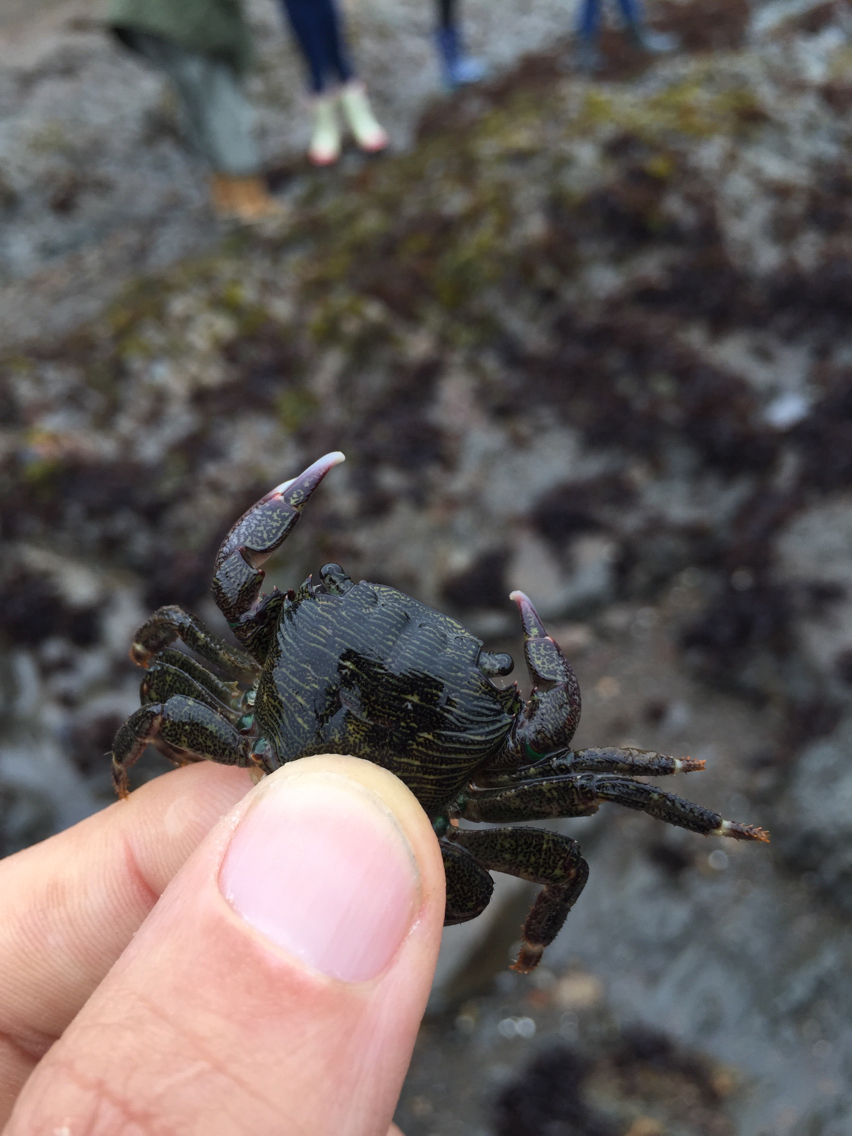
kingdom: Animalia
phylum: Arthropoda
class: Malacostraca
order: Decapoda
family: Grapsidae
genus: Pachygrapsus
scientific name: Pachygrapsus crassipes
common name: Striped shore crab
